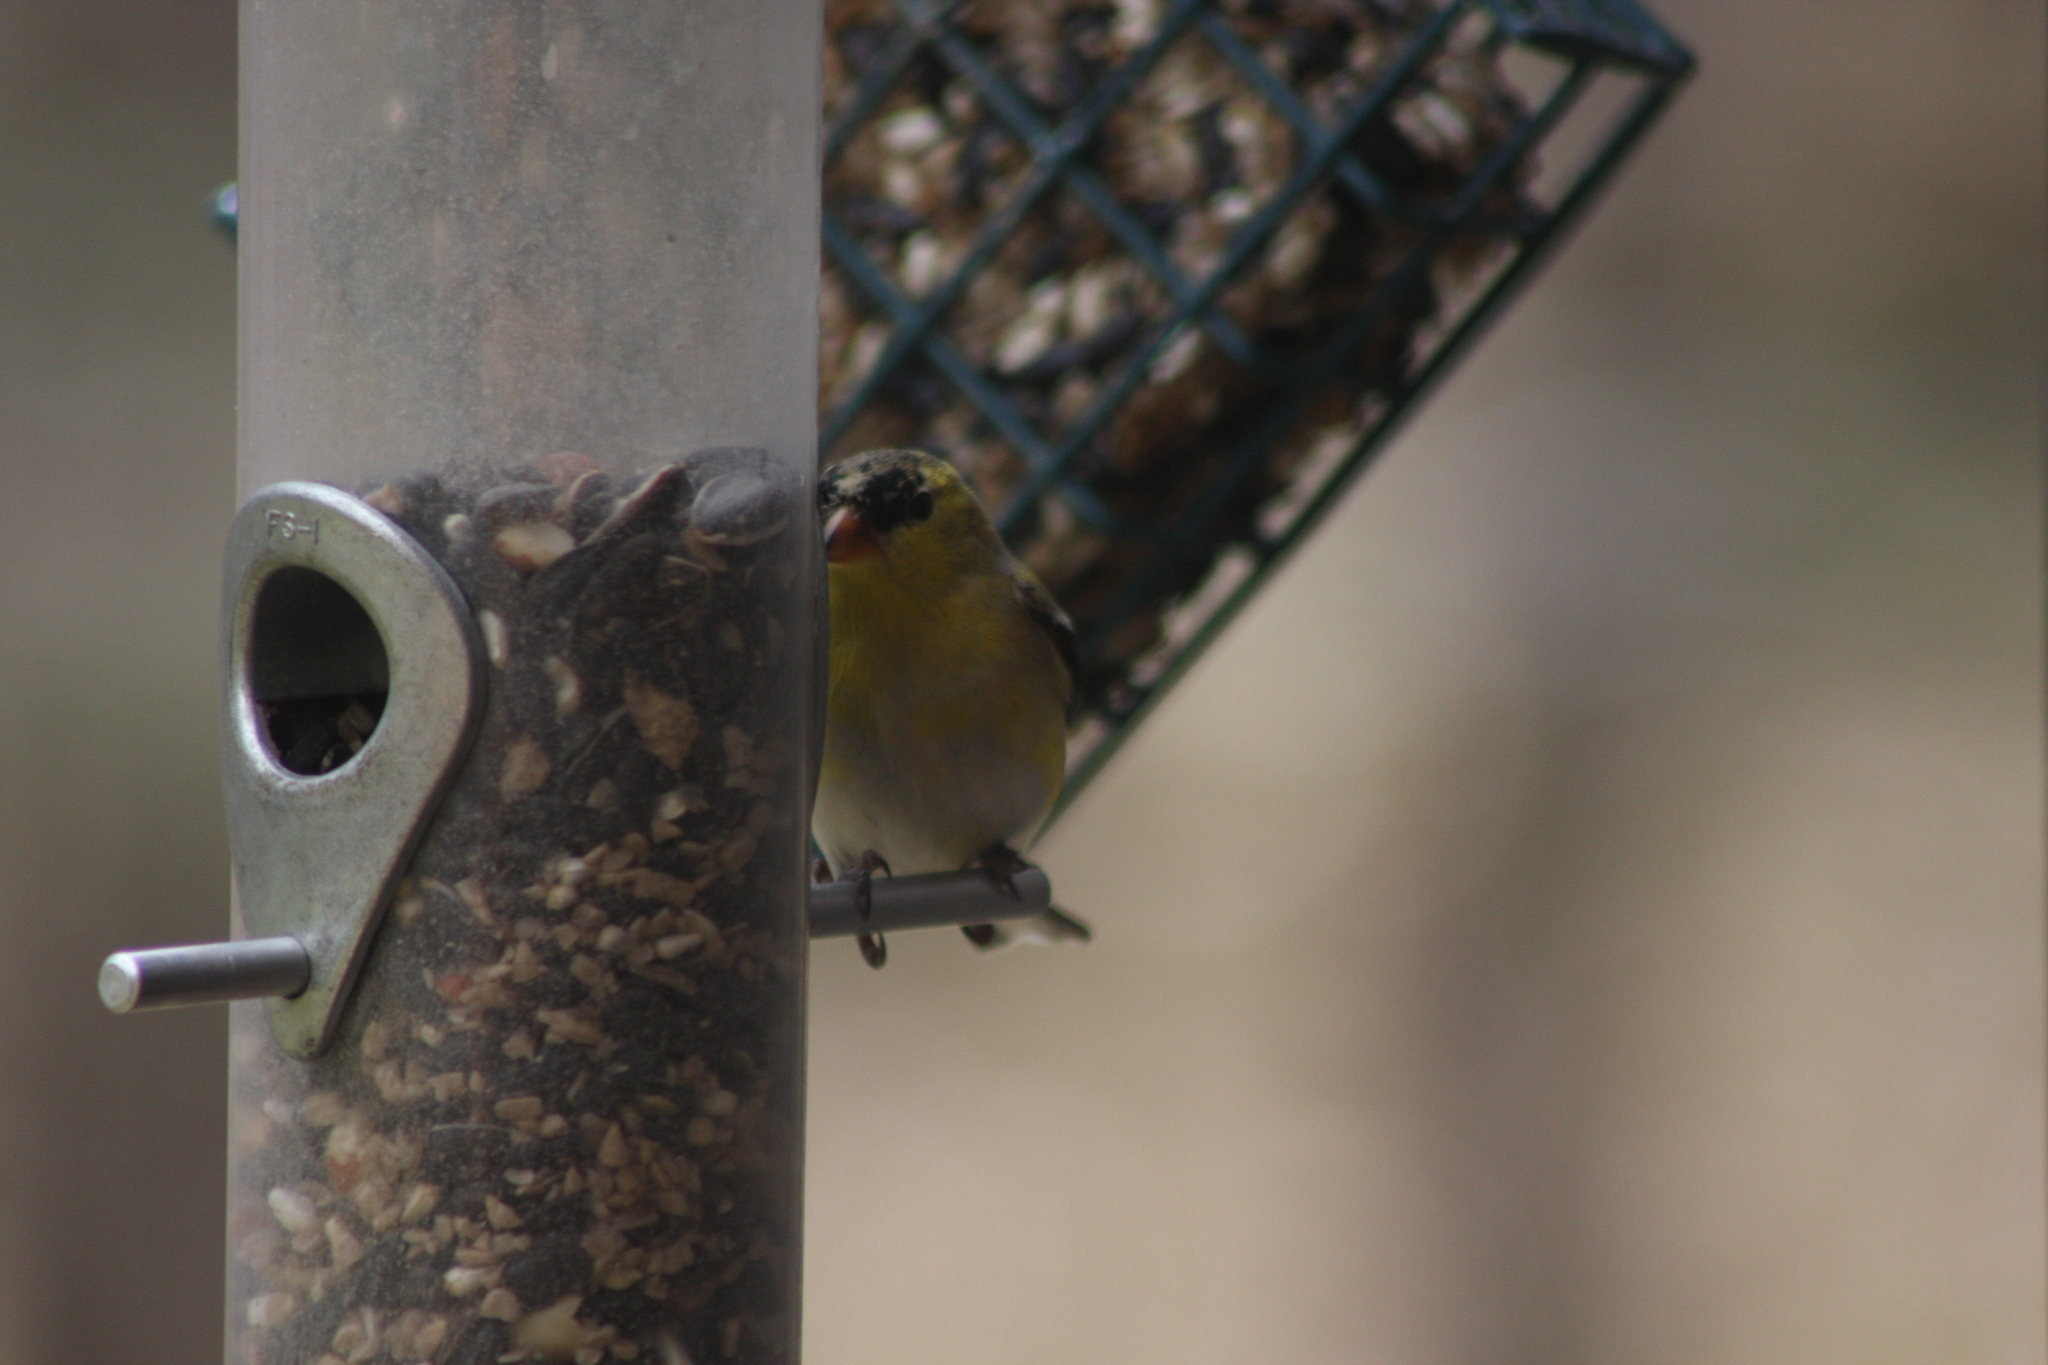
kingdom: Animalia
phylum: Chordata
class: Aves
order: Passeriformes
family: Fringillidae
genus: Spinus
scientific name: Spinus tristis
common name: American goldfinch
